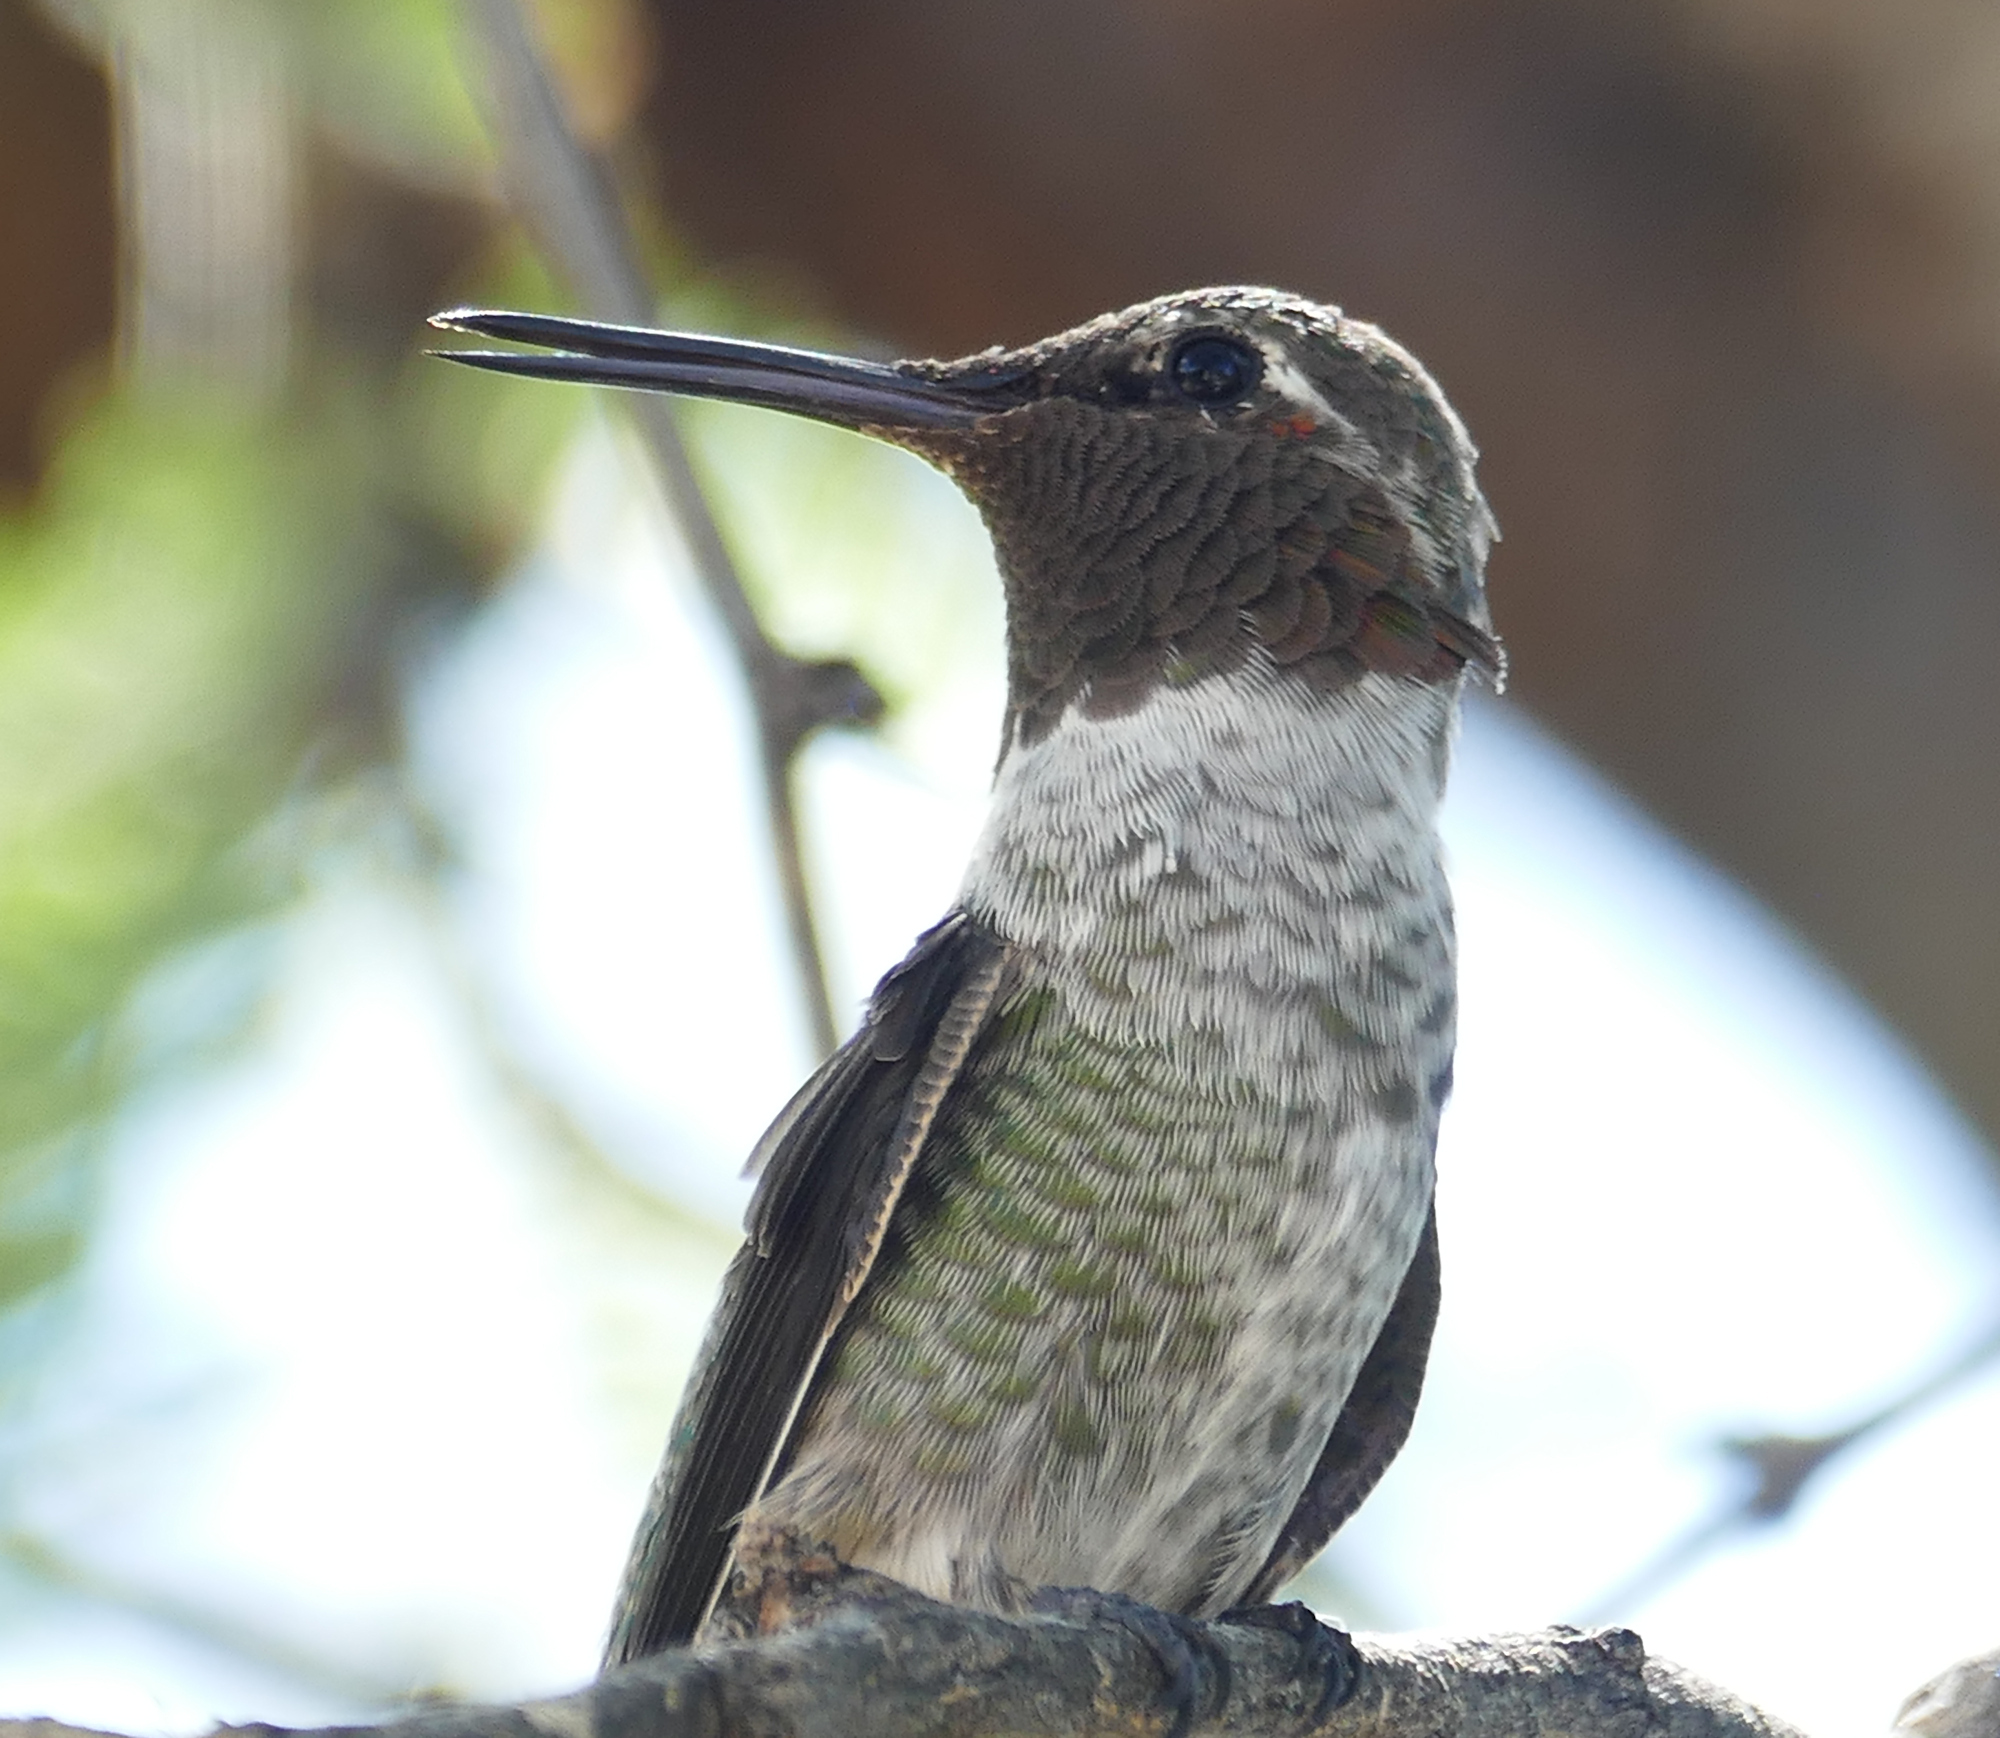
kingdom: Animalia
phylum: Chordata
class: Aves
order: Apodiformes
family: Trochilidae
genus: Calypte
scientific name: Calypte anna
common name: Anna's hummingbird
